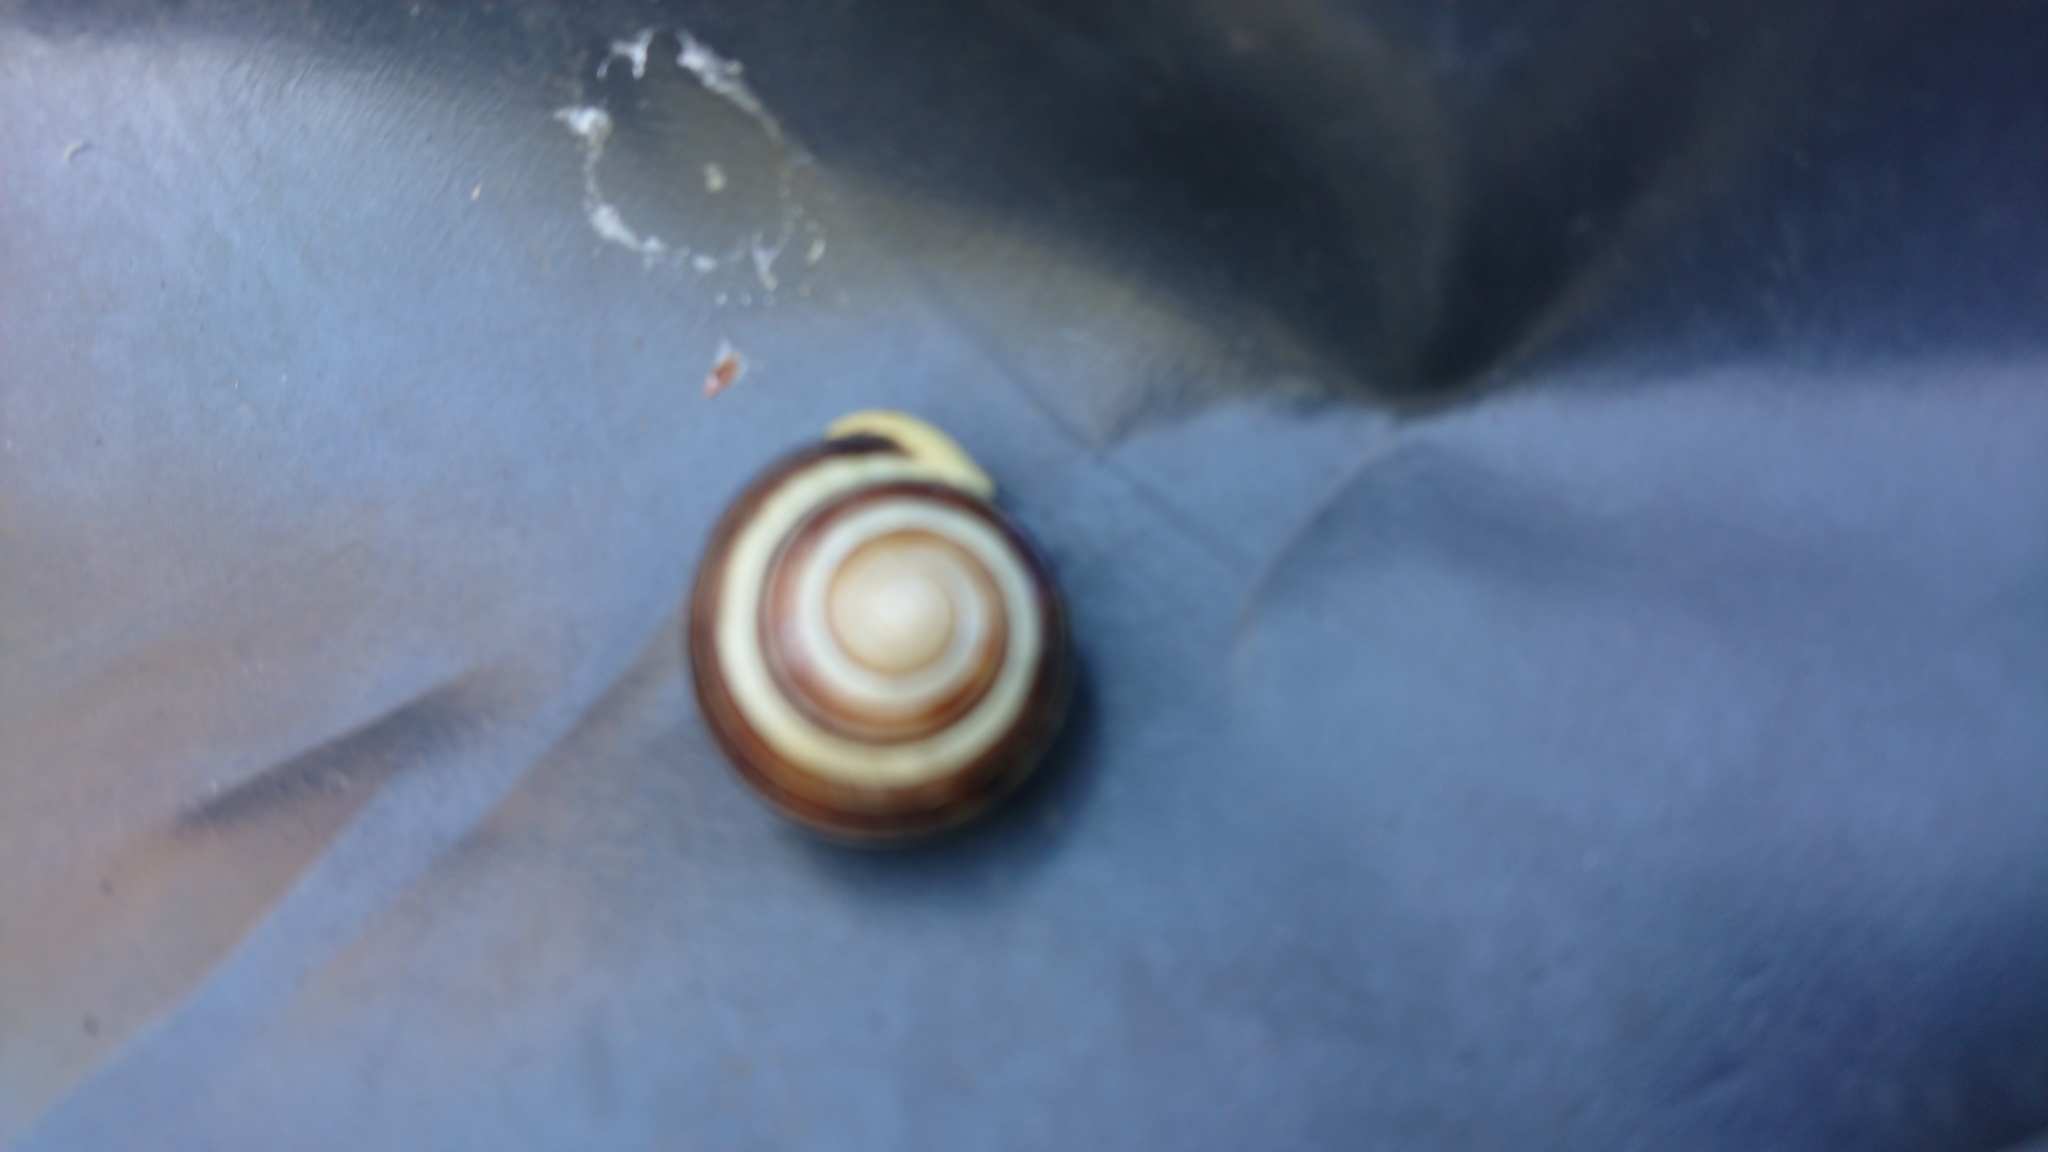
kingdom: Animalia
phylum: Mollusca
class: Gastropoda
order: Stylommatophora
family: Helicidae
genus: Cepaea
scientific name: Cepaea hortensis
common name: White-lip gardensnail
